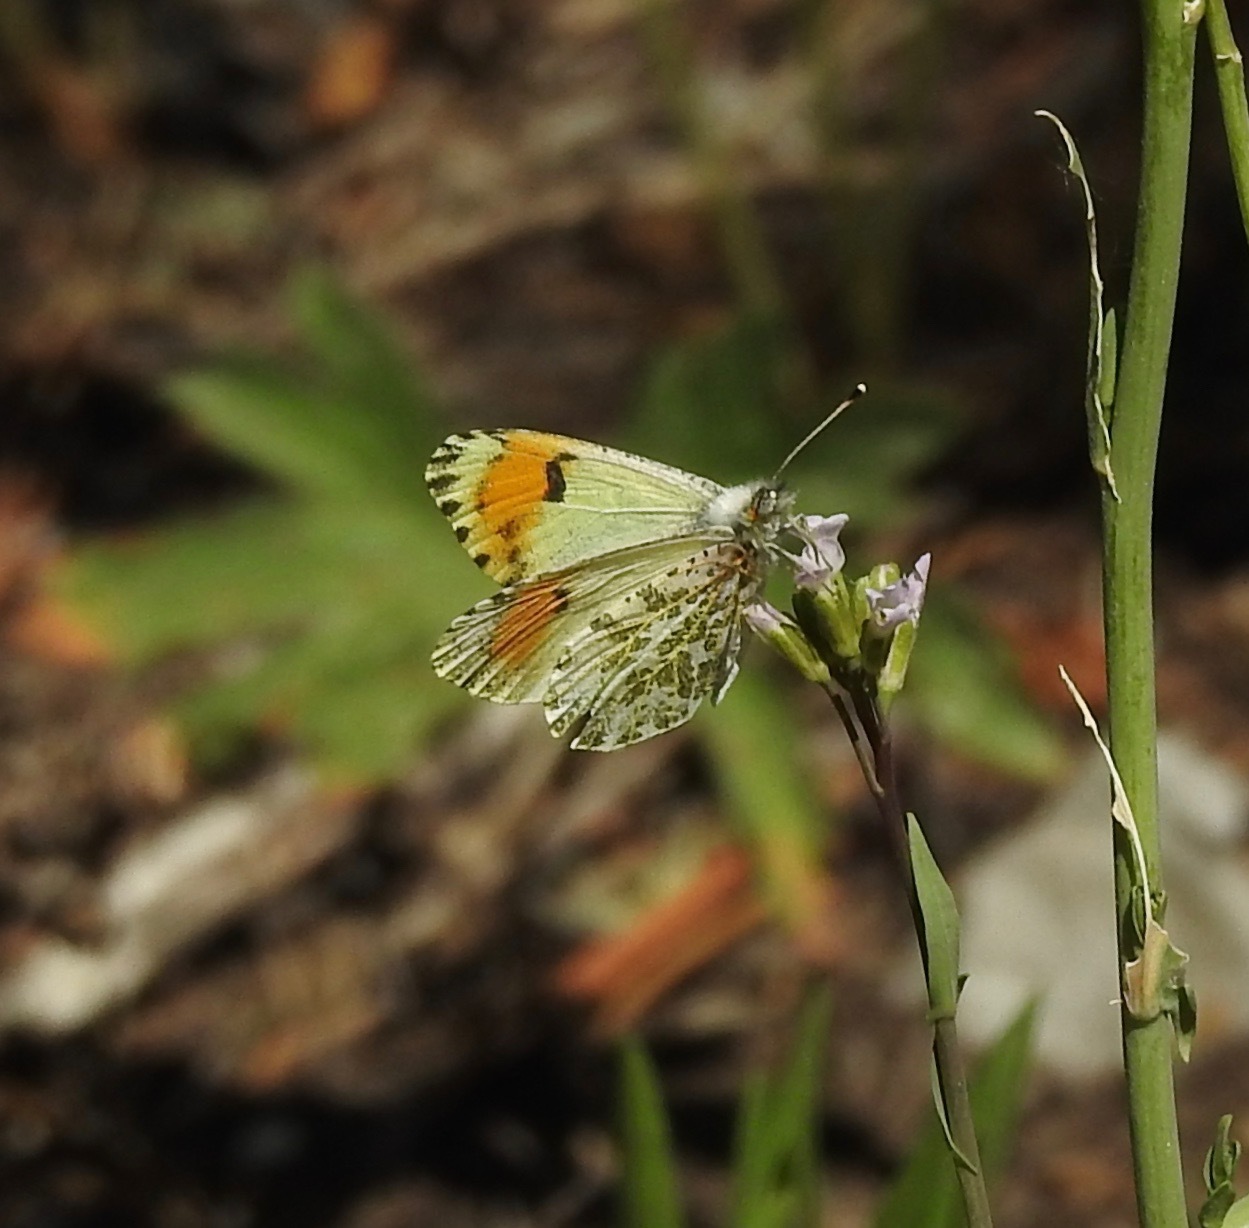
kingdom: Animalia
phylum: Arthropoda
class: Insecta
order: Lepidoptera
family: Pieridae
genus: Anthocharis
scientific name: Anthocharis julia
